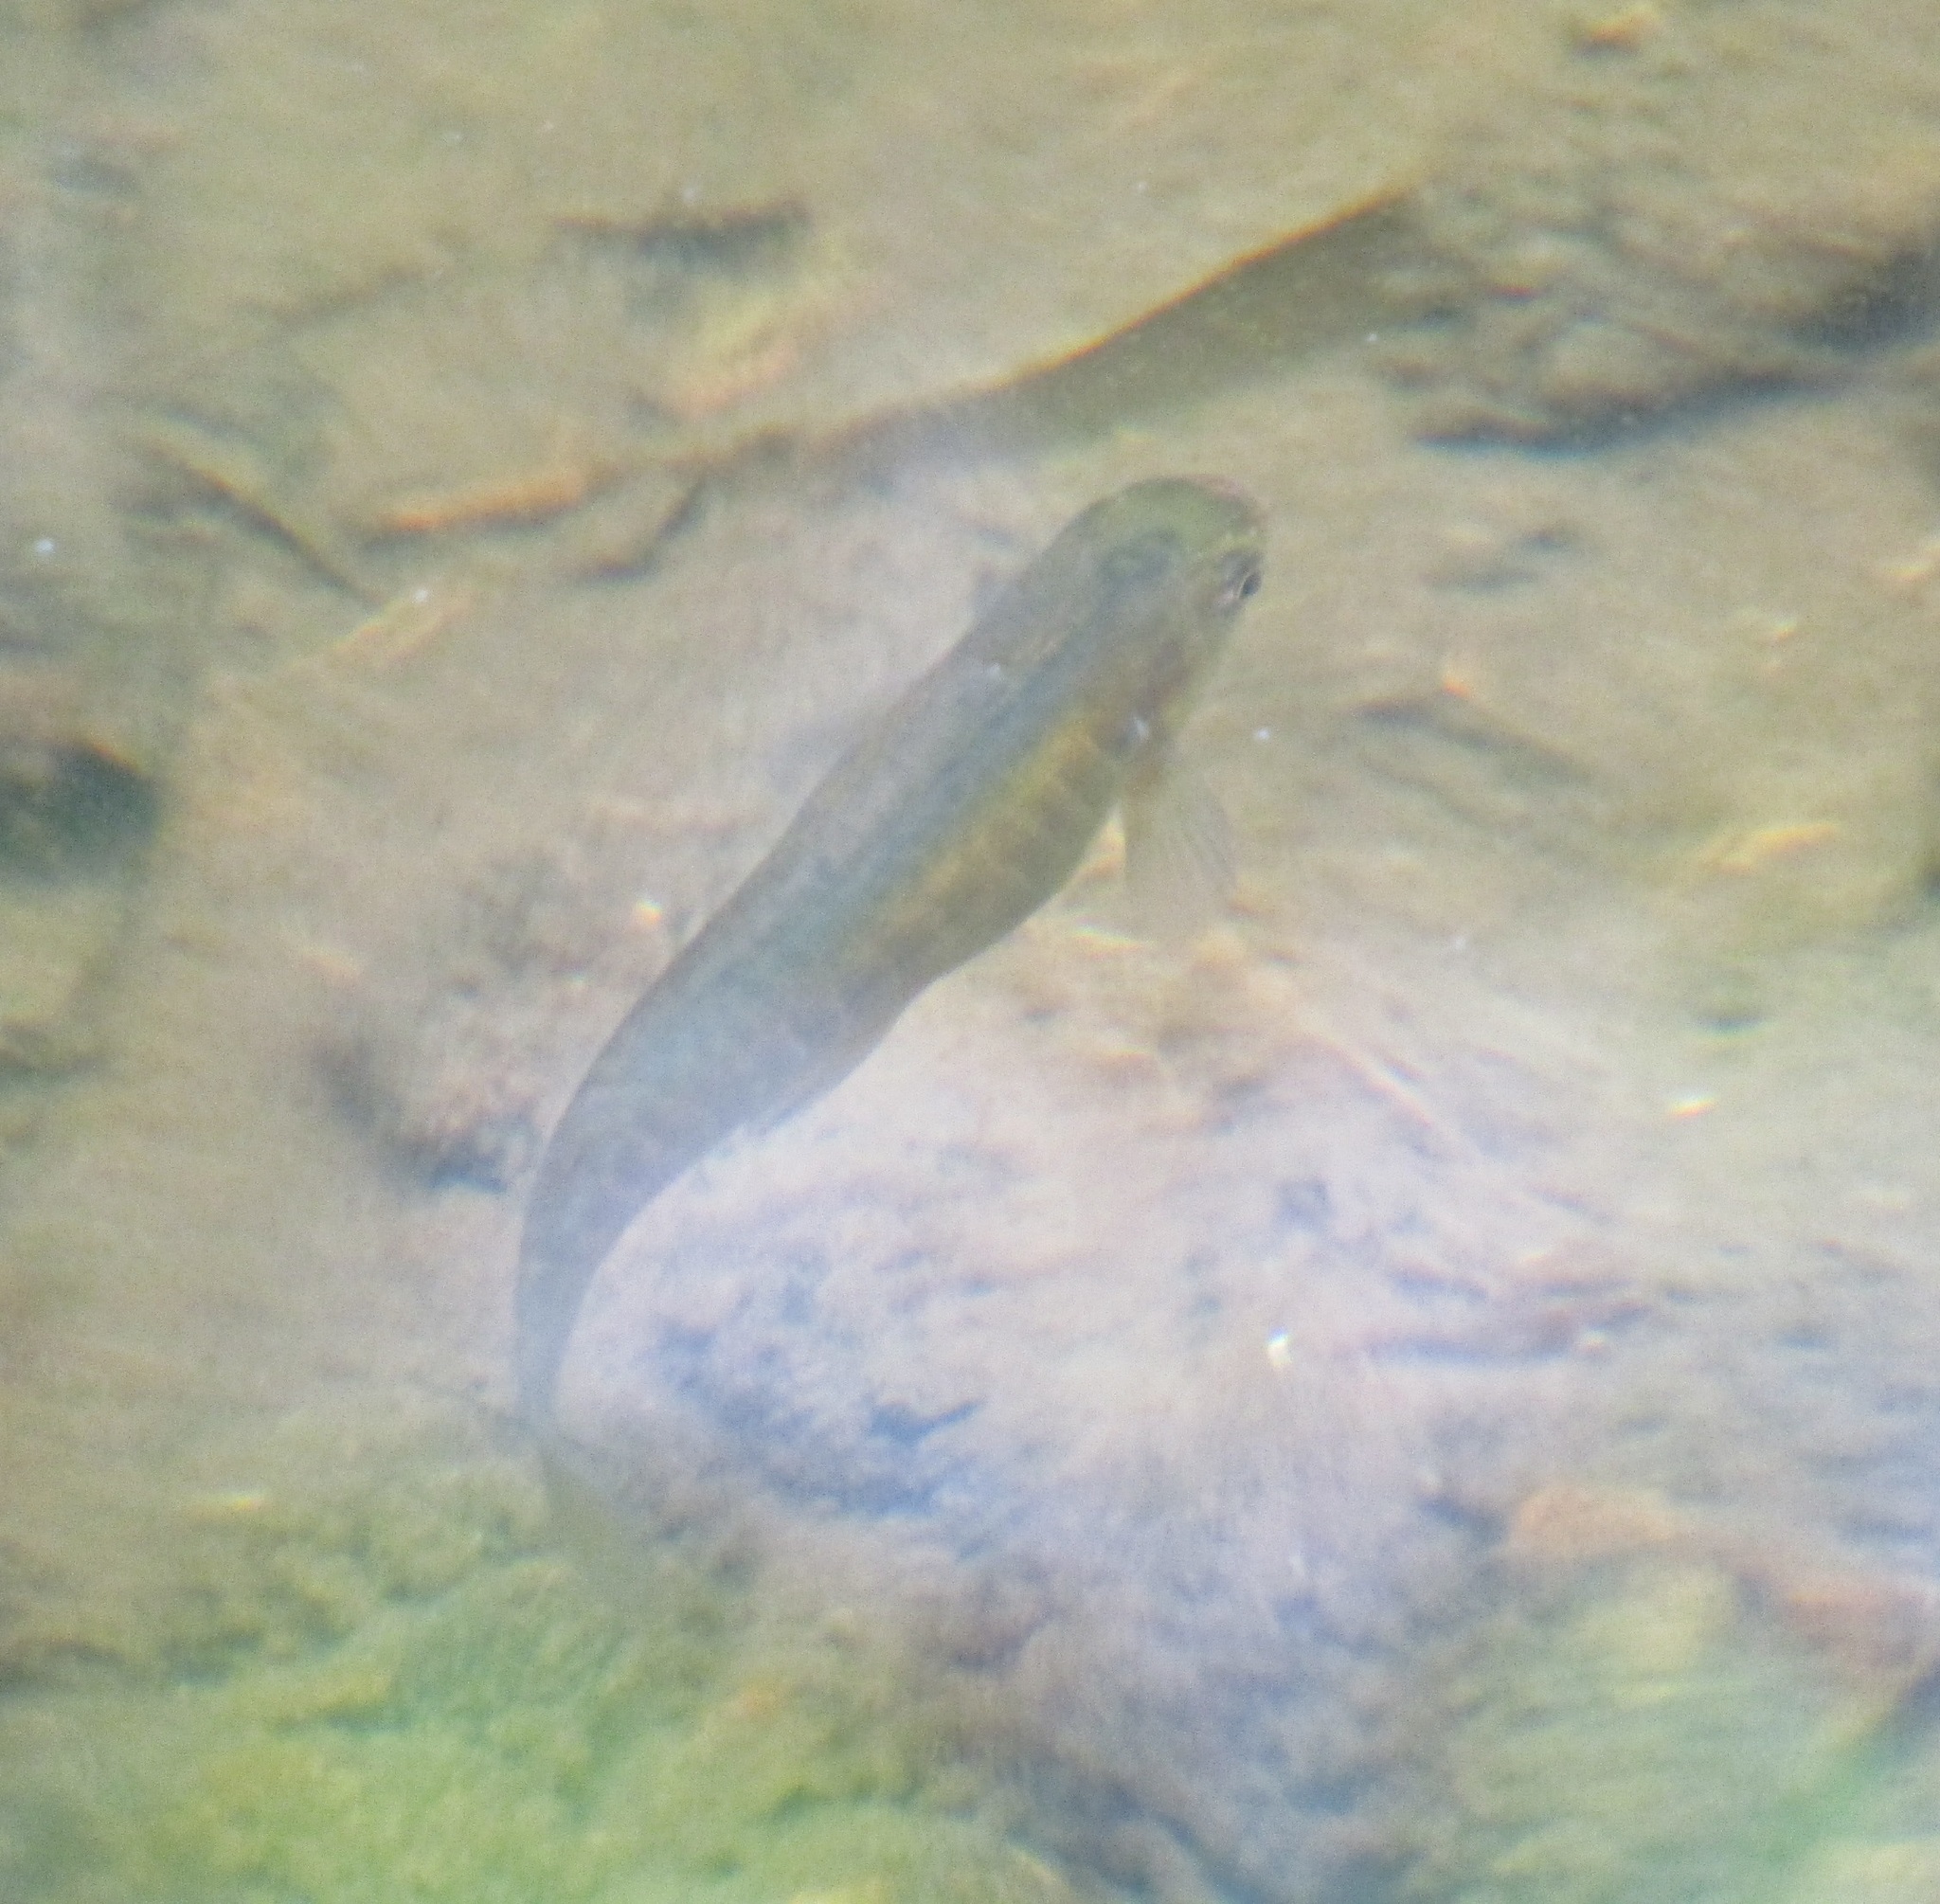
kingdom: Animalia
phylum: Chordata
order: Osmeriformes
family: Galaxiidae
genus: Galaxias
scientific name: Galaxias fasciatus
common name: Banded kokopu
